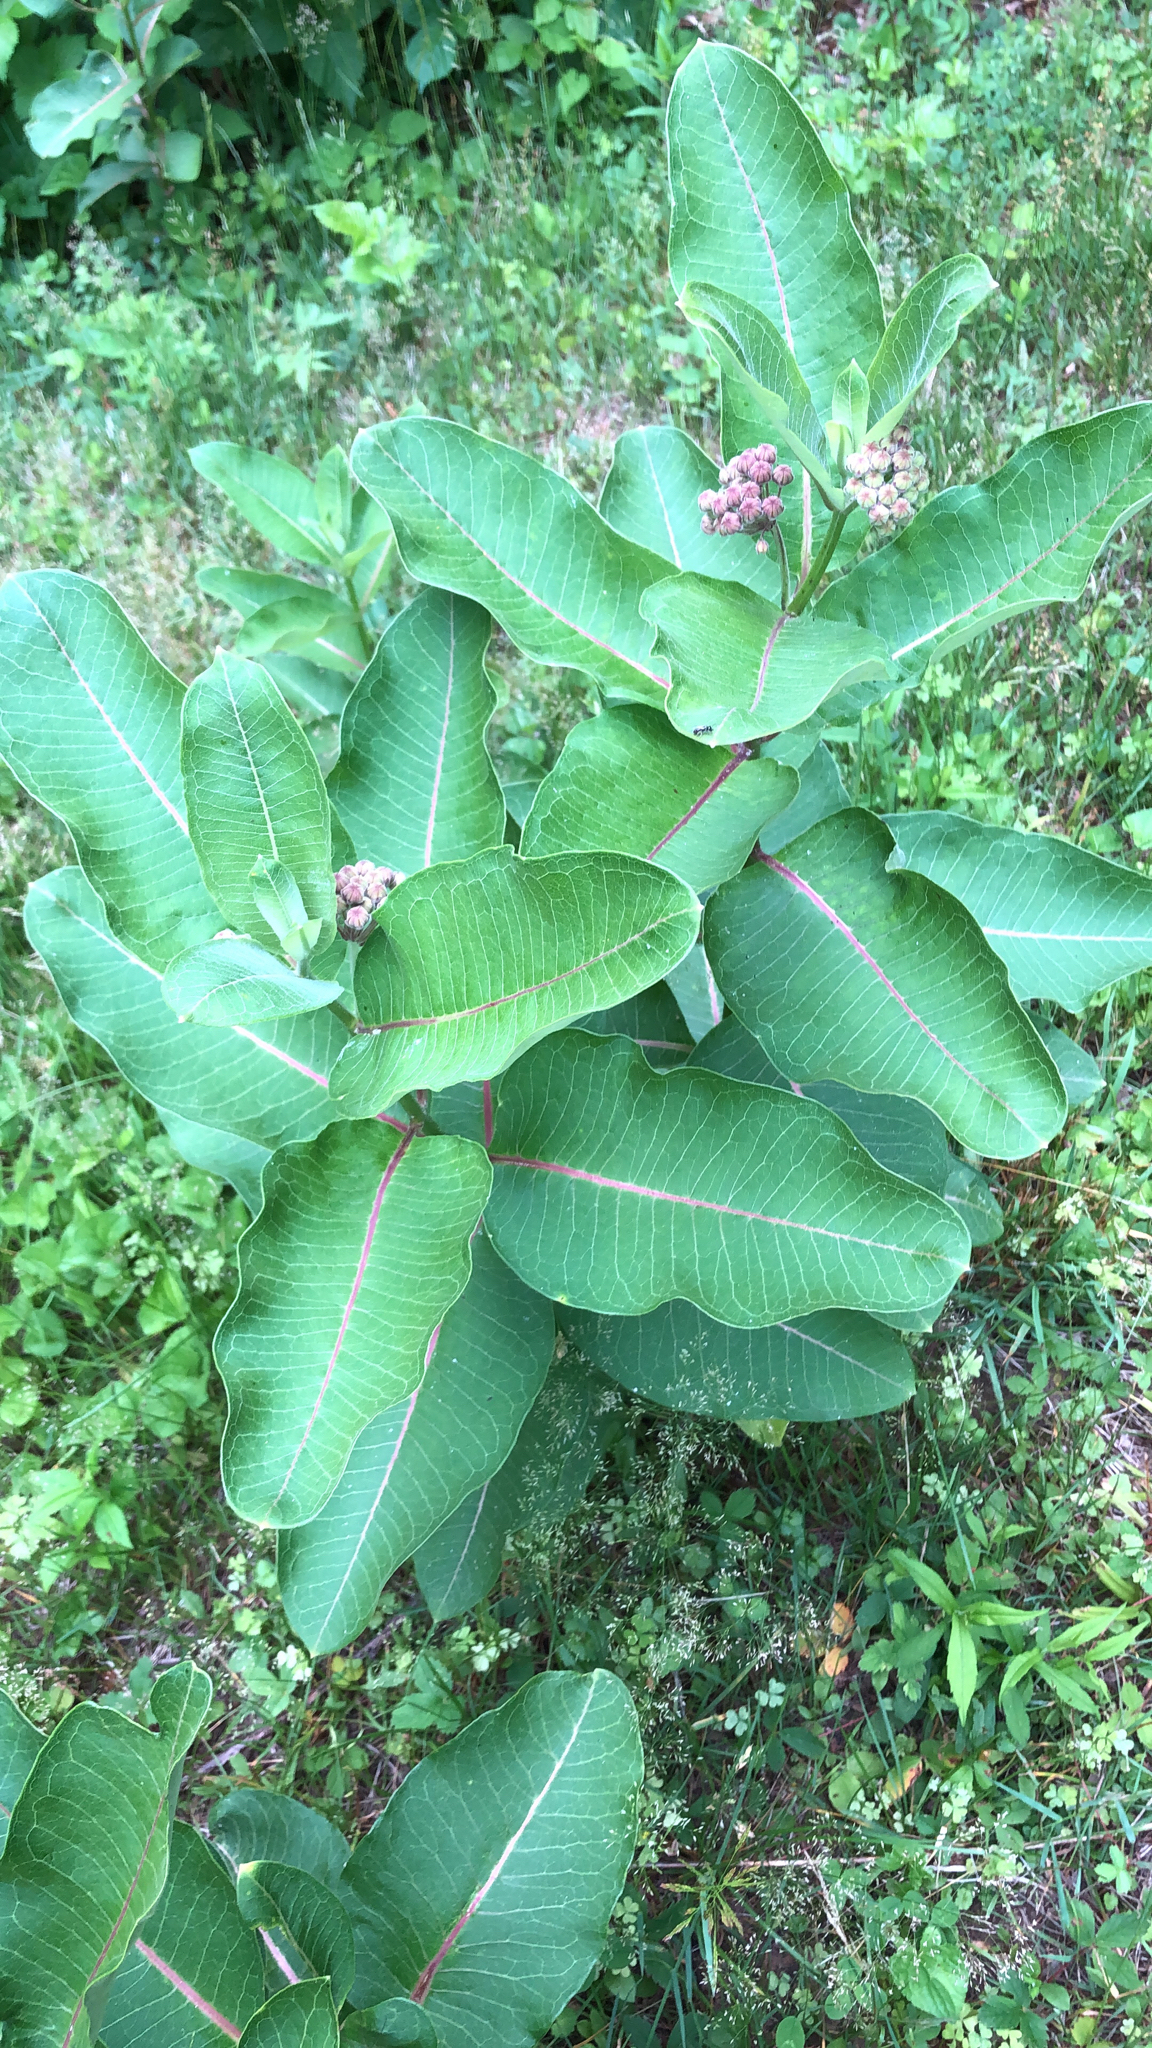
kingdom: Plantae
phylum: Tracheophyta
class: Magnoliopsida
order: Gentianales
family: Apocynaceae
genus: Asclepias
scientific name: Asclepias syriaca
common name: Common milkweed
